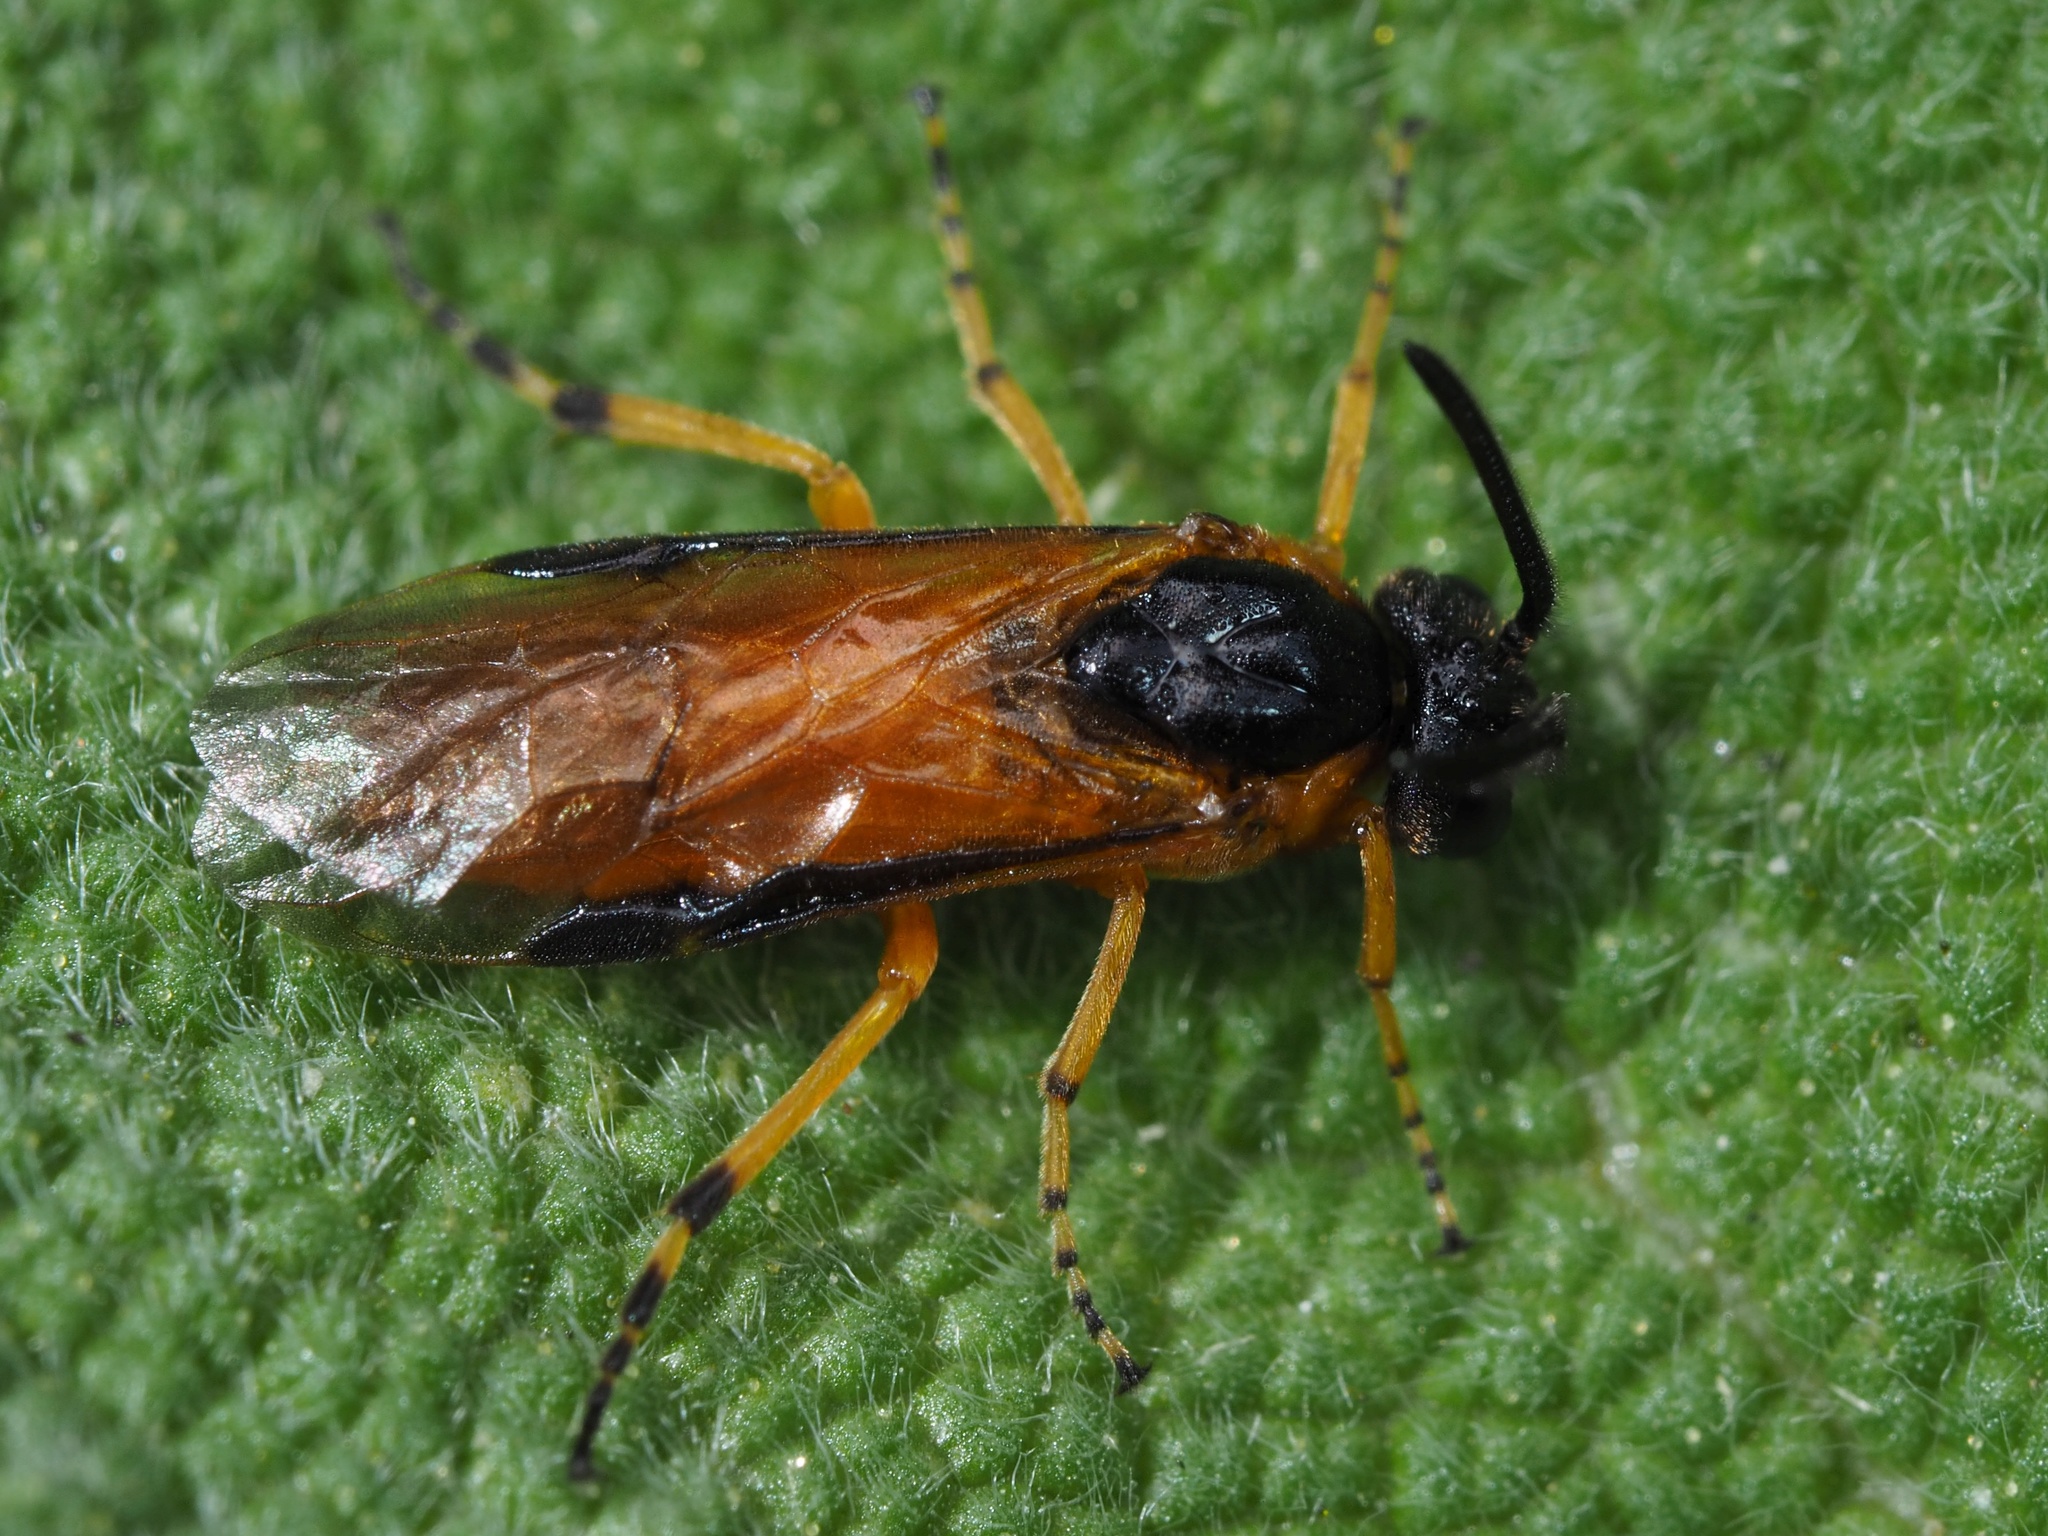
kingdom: Animalia
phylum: Arthropoda
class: Insecta
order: Hymenoptera
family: Argidae
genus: Arge
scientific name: Arge ochropus
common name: Argid sawfly
